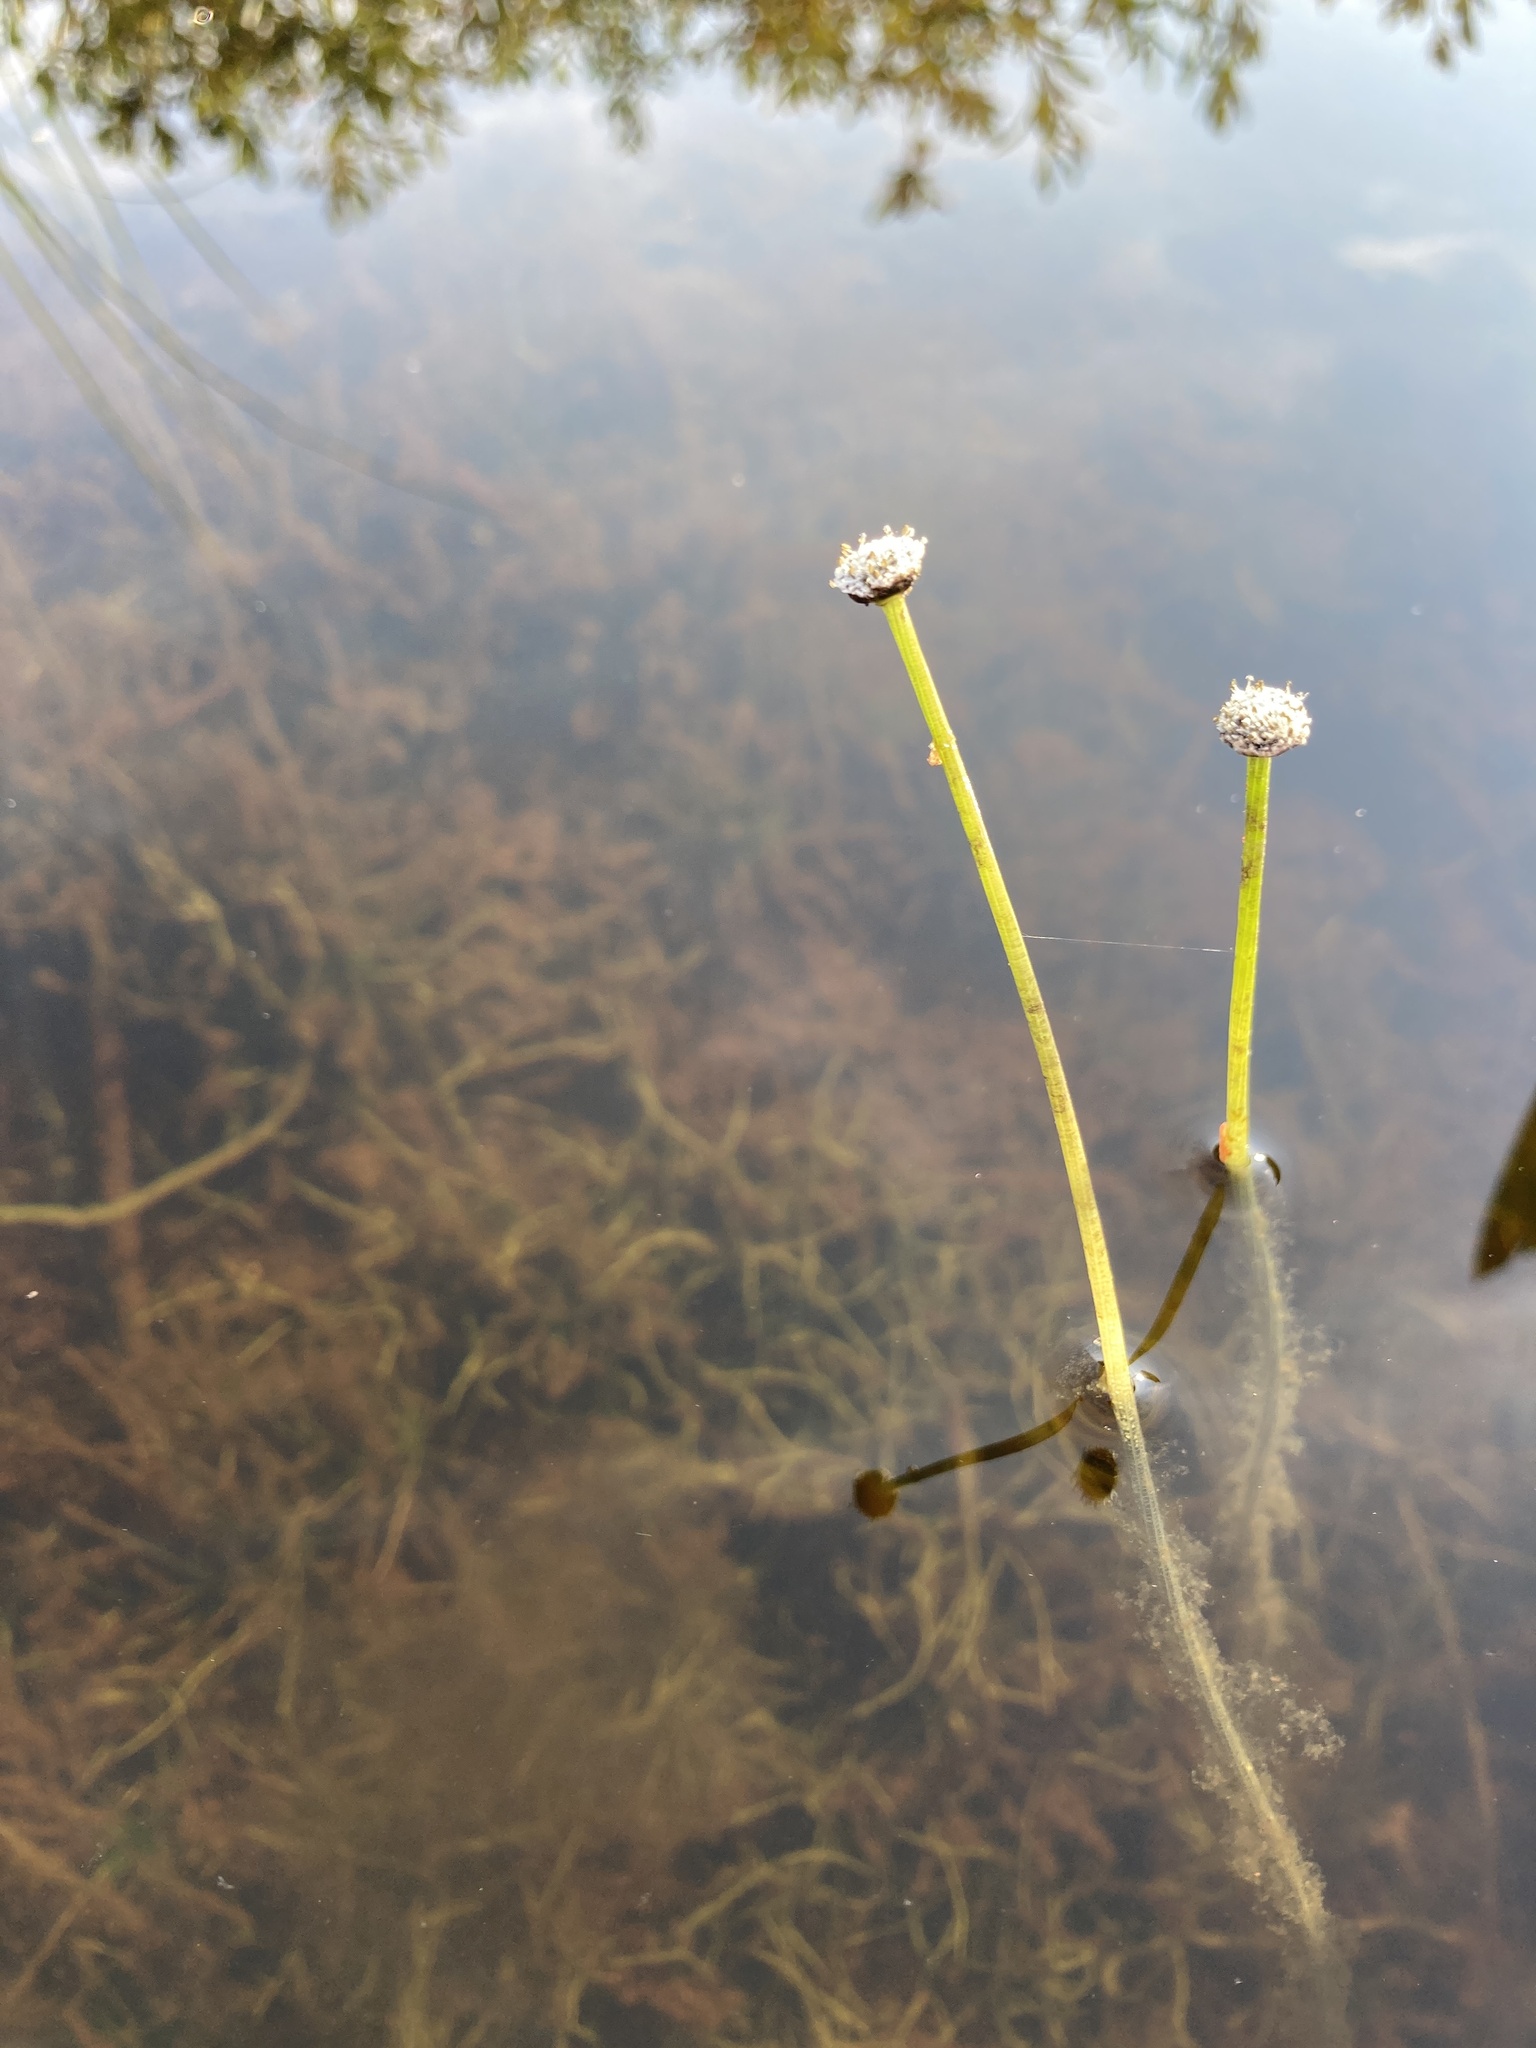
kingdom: Plantae
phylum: Tracheophyta
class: Liliopsida
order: Poales
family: Eriocaulaceae
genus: Eriocaulon
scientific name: Eriocaulon aquaticum
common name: Pipewort
